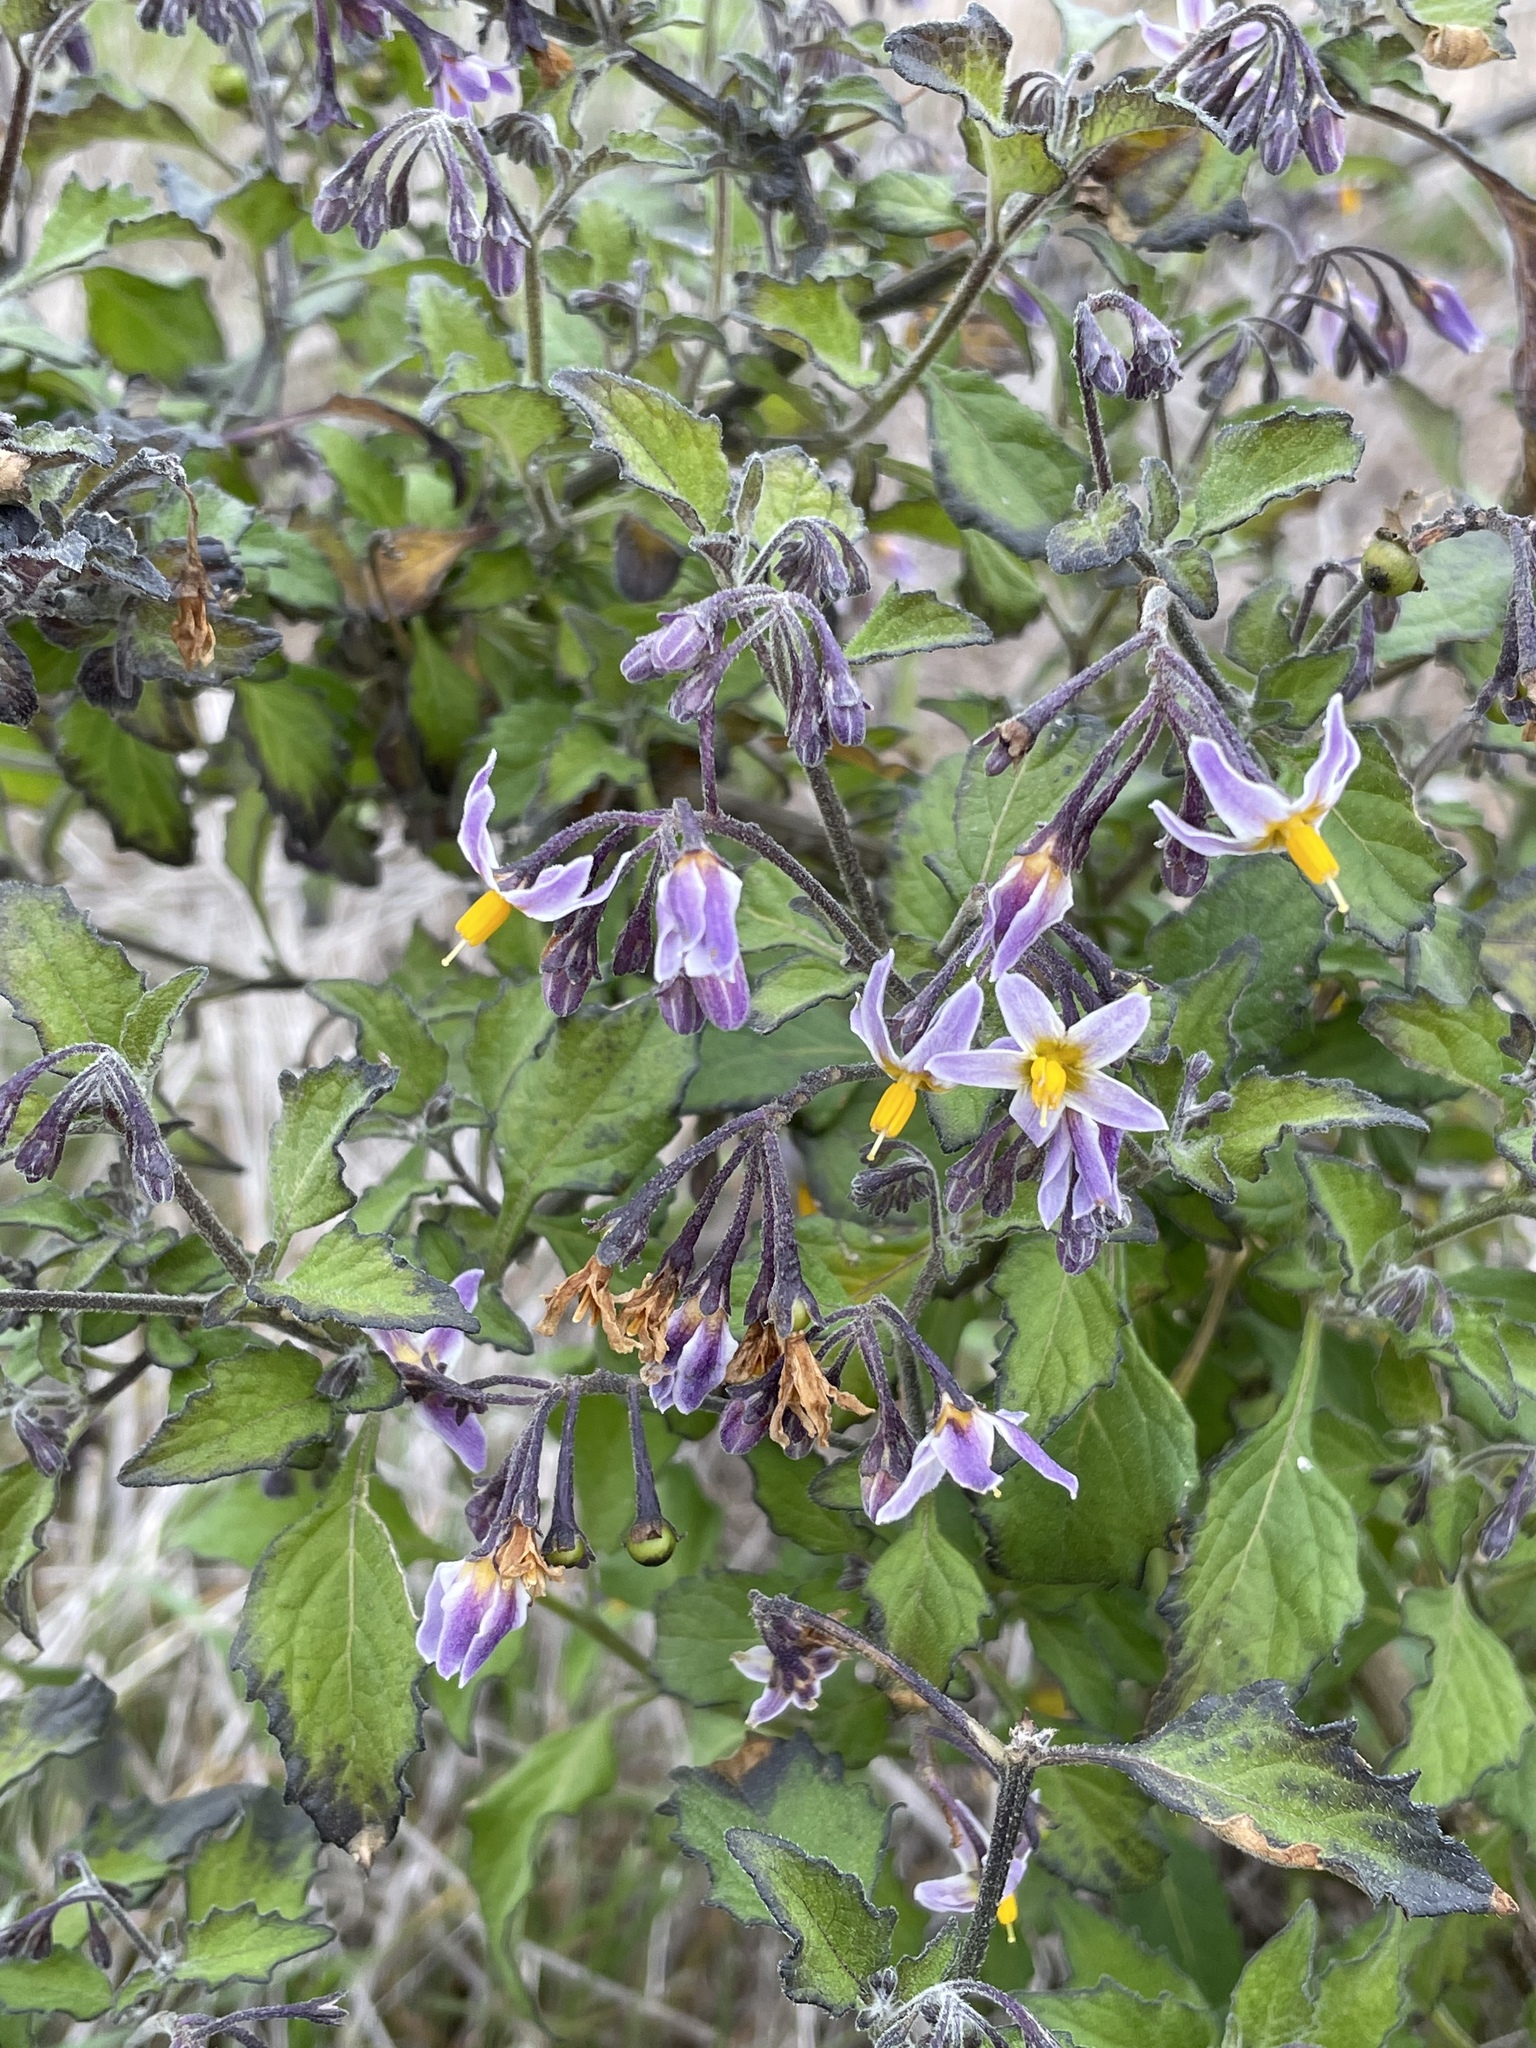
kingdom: Plantae
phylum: Tracheophyta
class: Magnoliopsida
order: Solanales
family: Solanaceae
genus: Solanum
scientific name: Solanum douglasii
